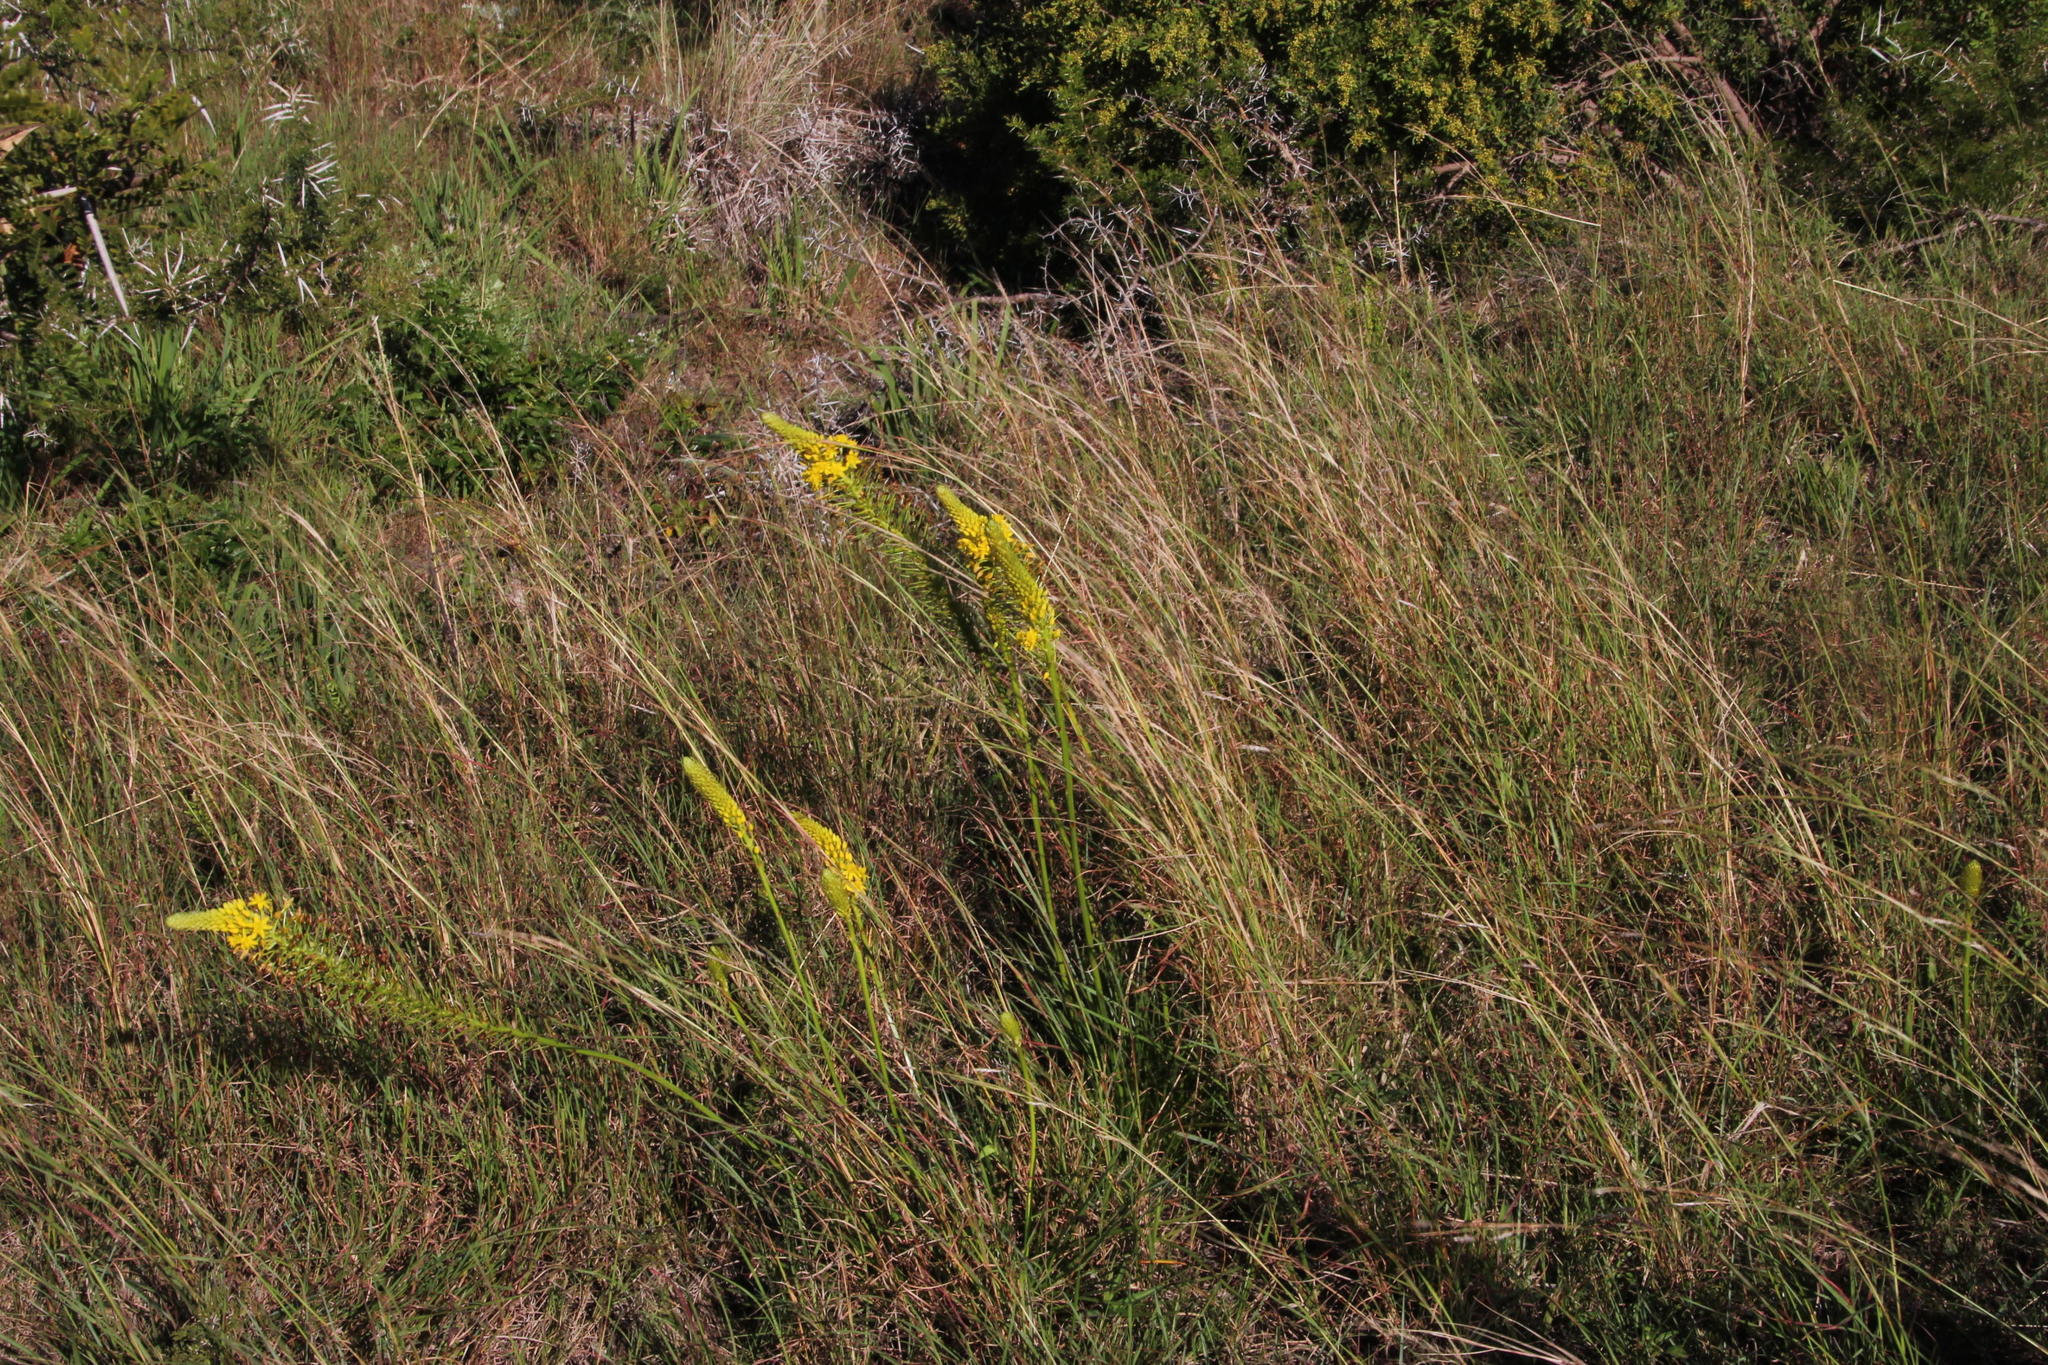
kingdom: Plantae
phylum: Tracheophyta
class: Liliopsida
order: Asparagales
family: Asphodelaceae
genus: Bulbine
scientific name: Bulbine abyssinica
